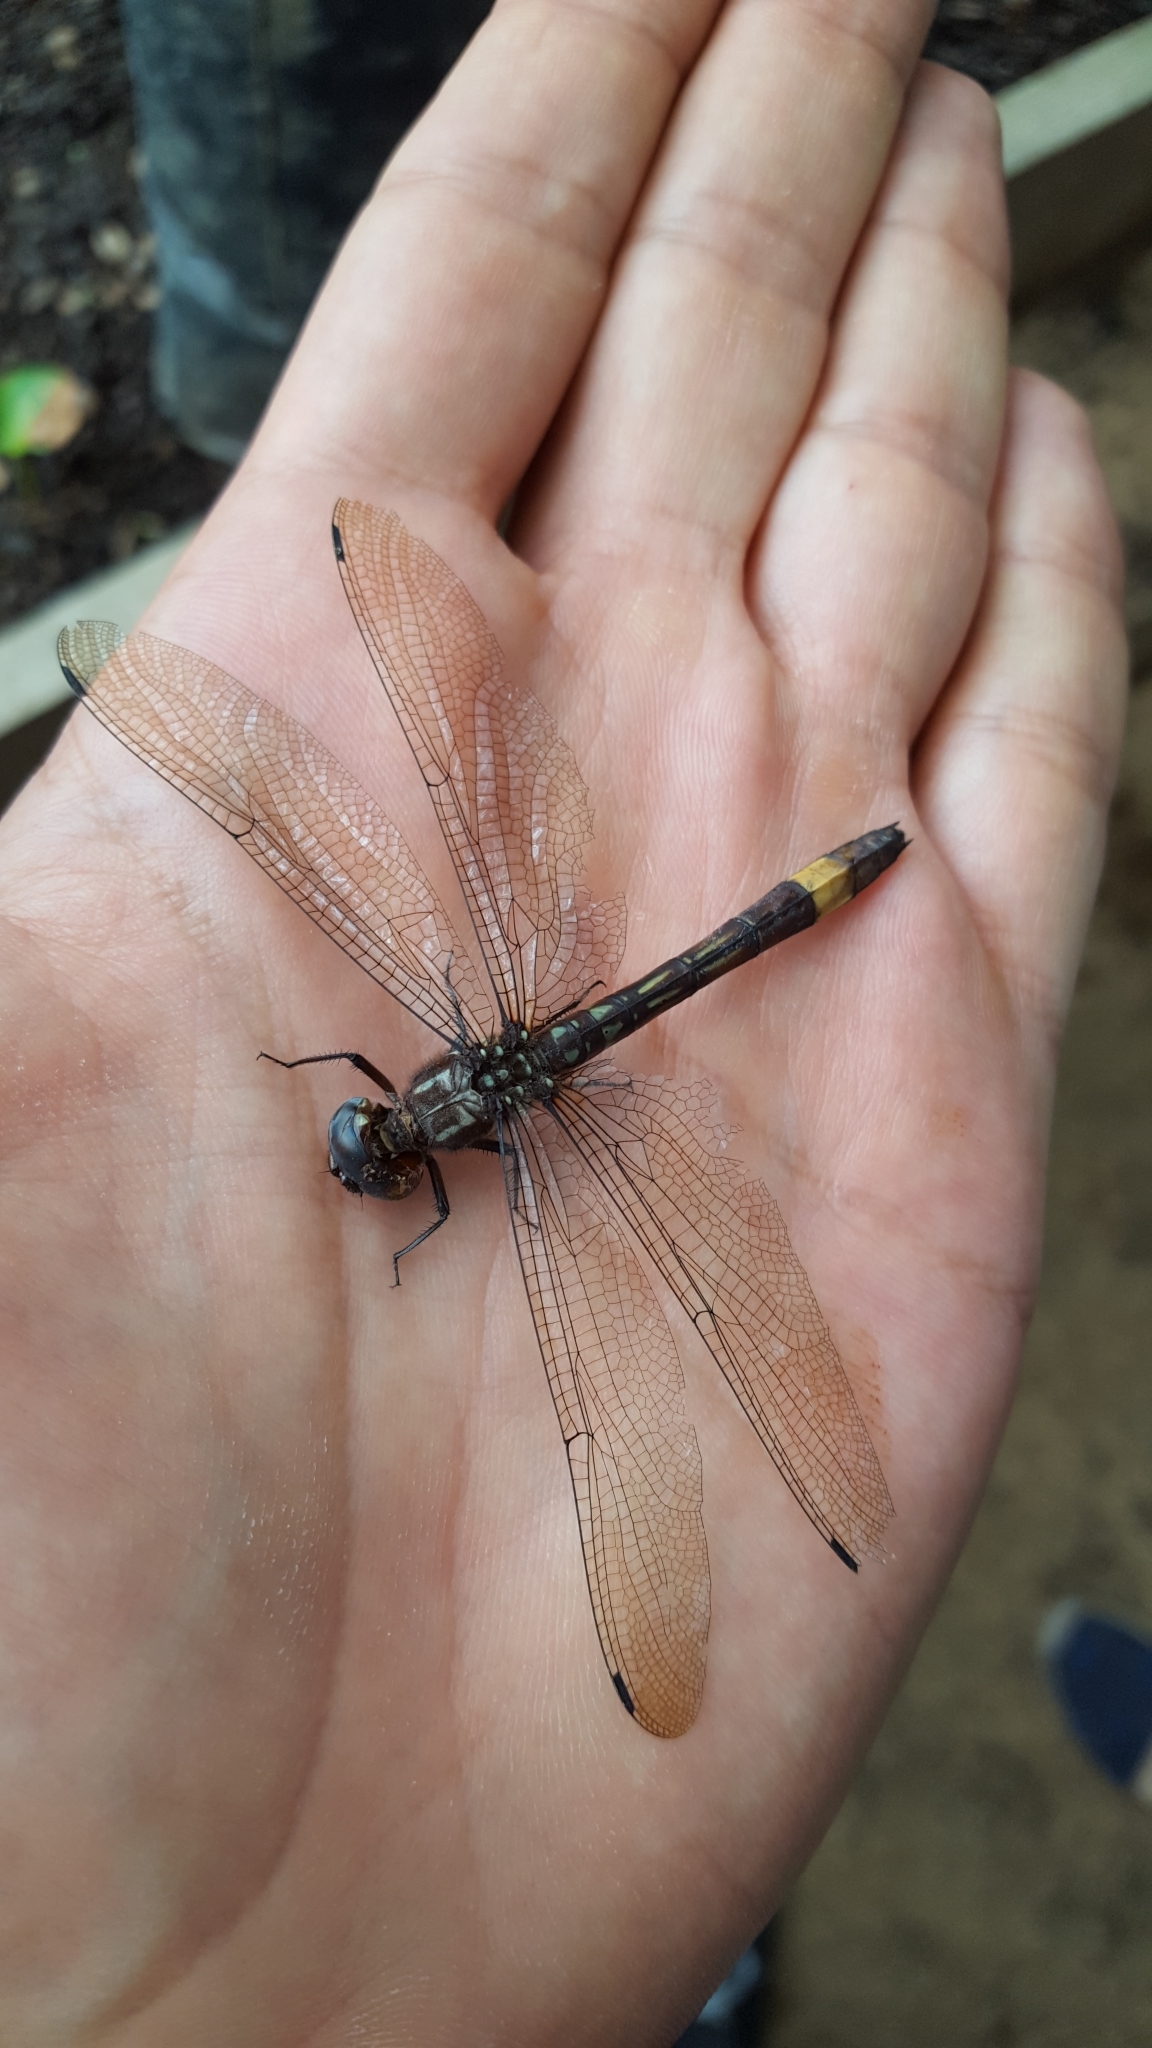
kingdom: Animalia
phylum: Arthropoda
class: Insecta
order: Odonata
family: Libellulidae
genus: Brechmorhoga
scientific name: Brechmorhoga rapax
